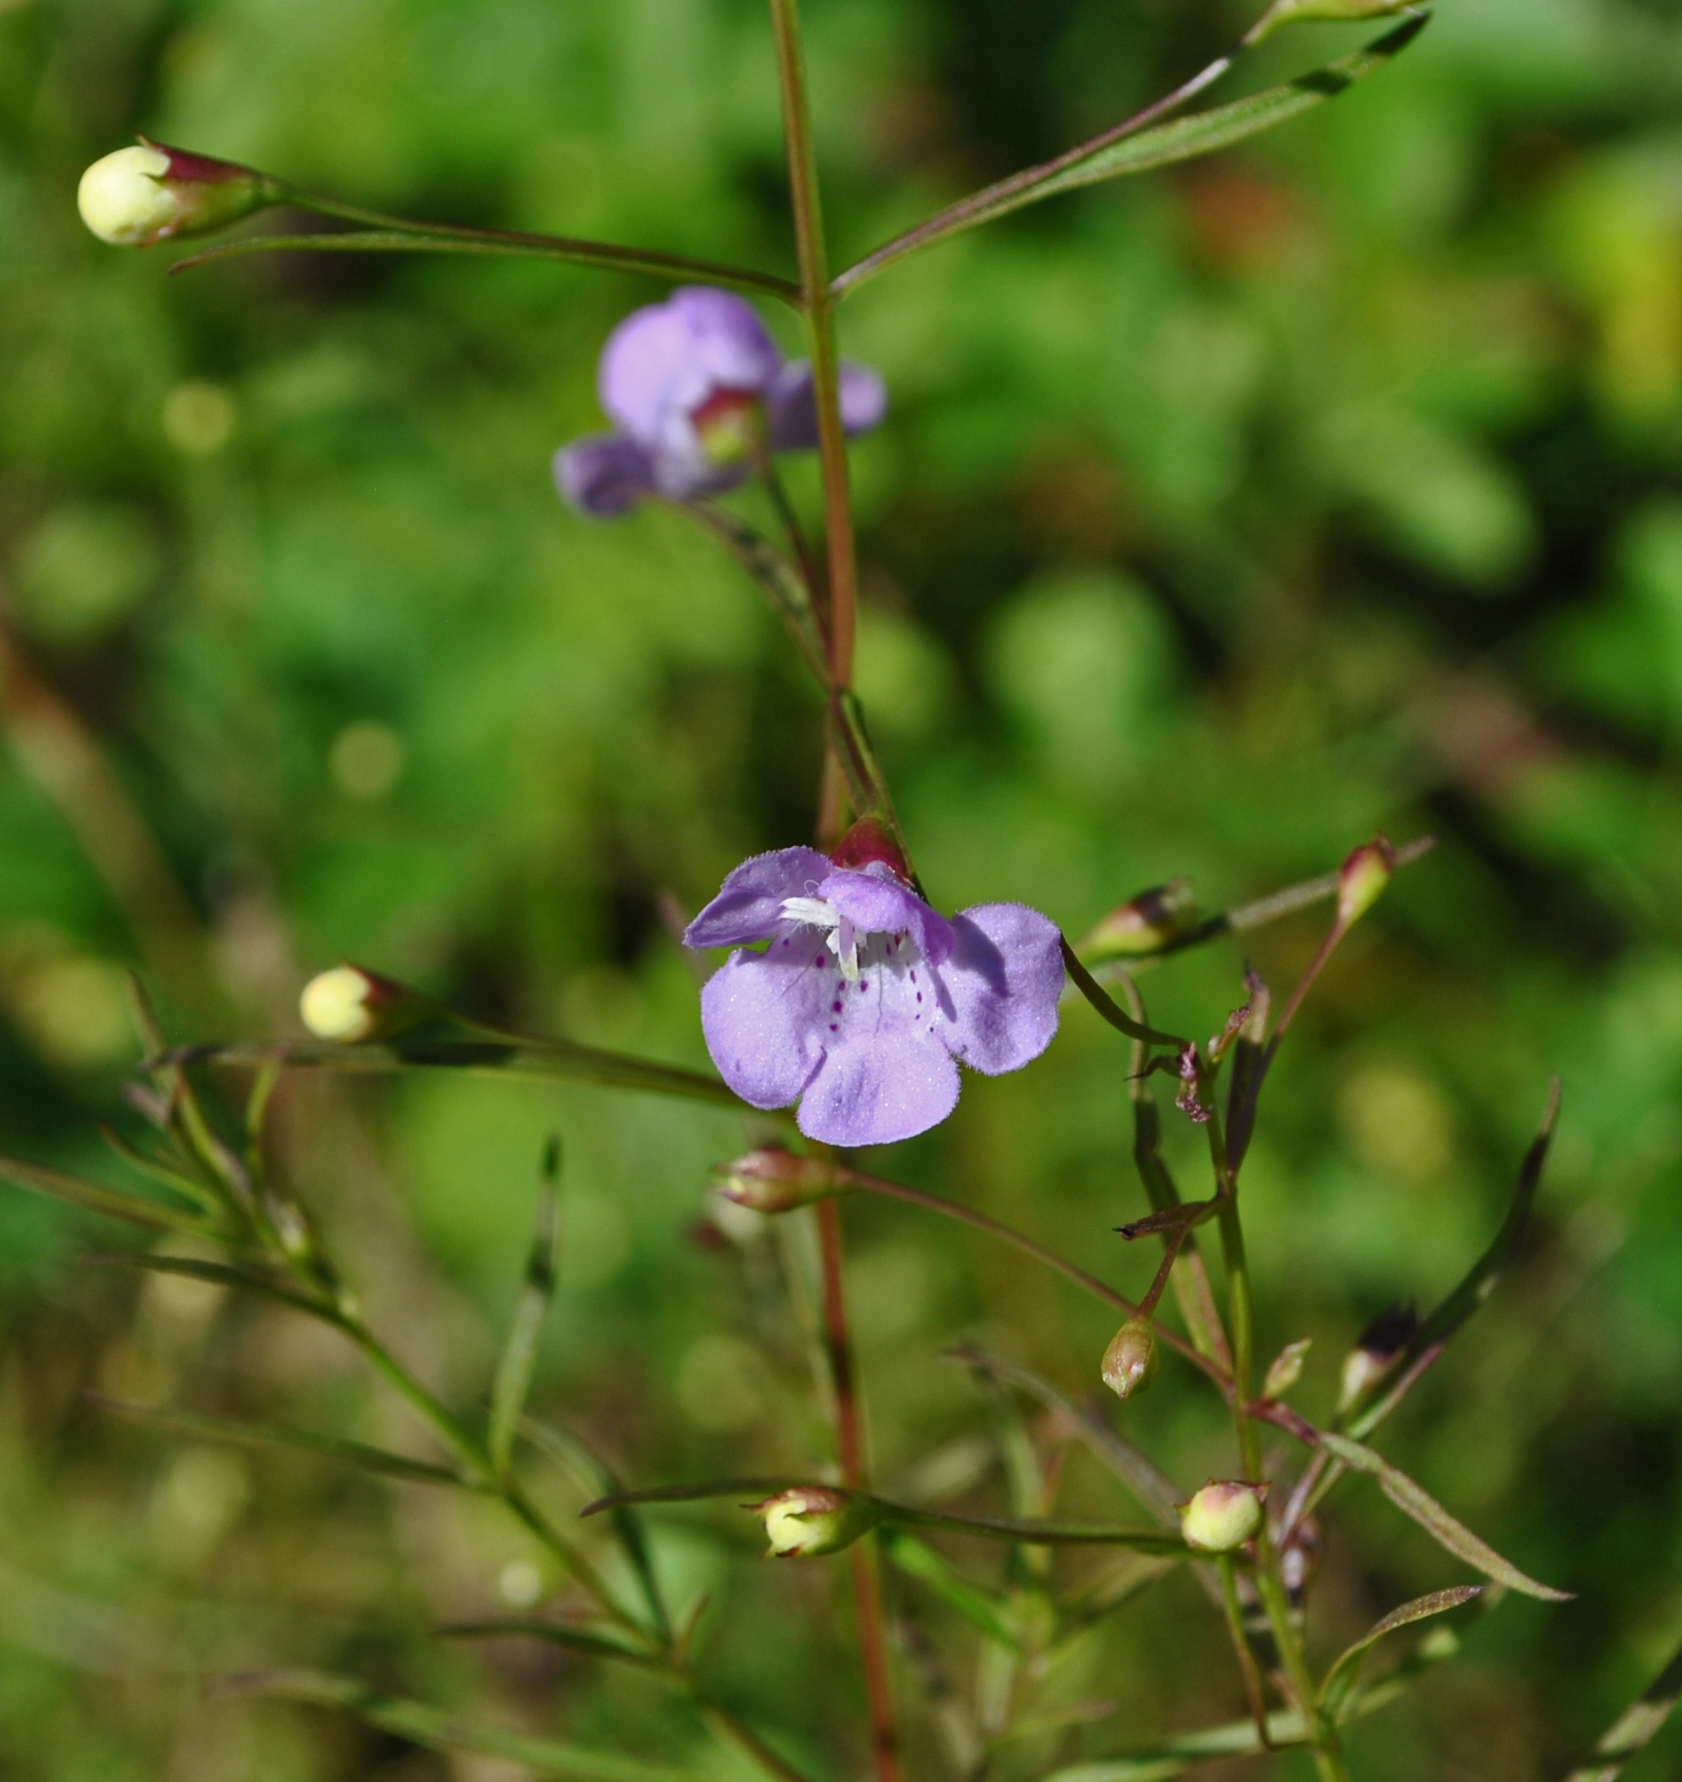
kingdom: Plantae
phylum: Tracheophyta
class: Magnoliopsida
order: Lamiales
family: Orobanchaceae
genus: Agalinis
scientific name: Agalinis tenuifolia
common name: Slender agalinis
